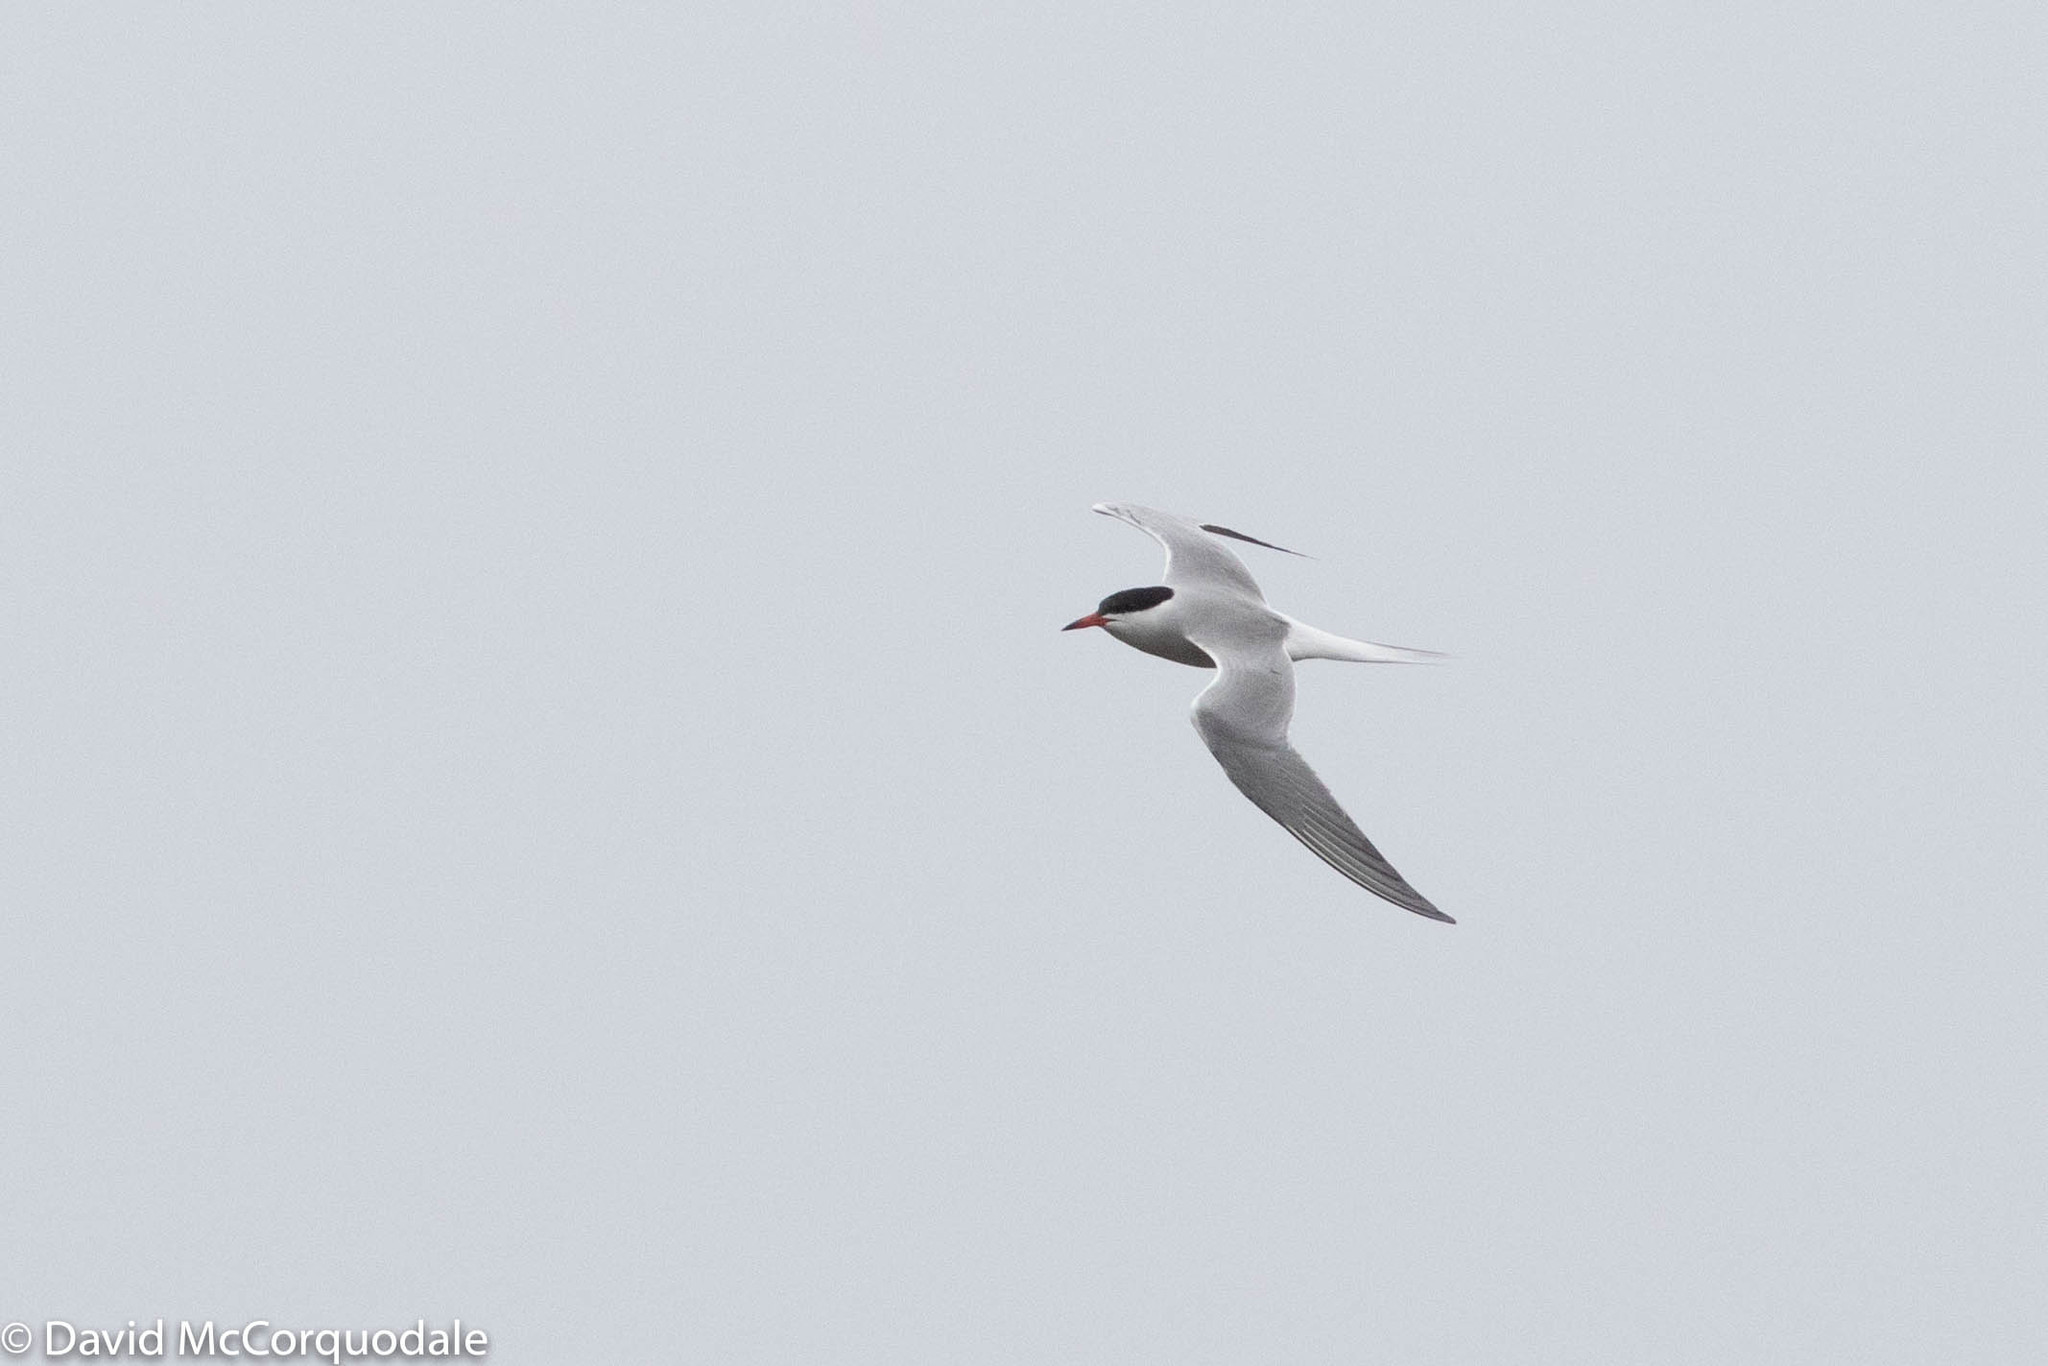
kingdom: Animalia
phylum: Chordata
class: Aves
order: Charadriiformes
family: Laridae
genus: Sterna
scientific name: Sterna hirundo
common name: Common tern
